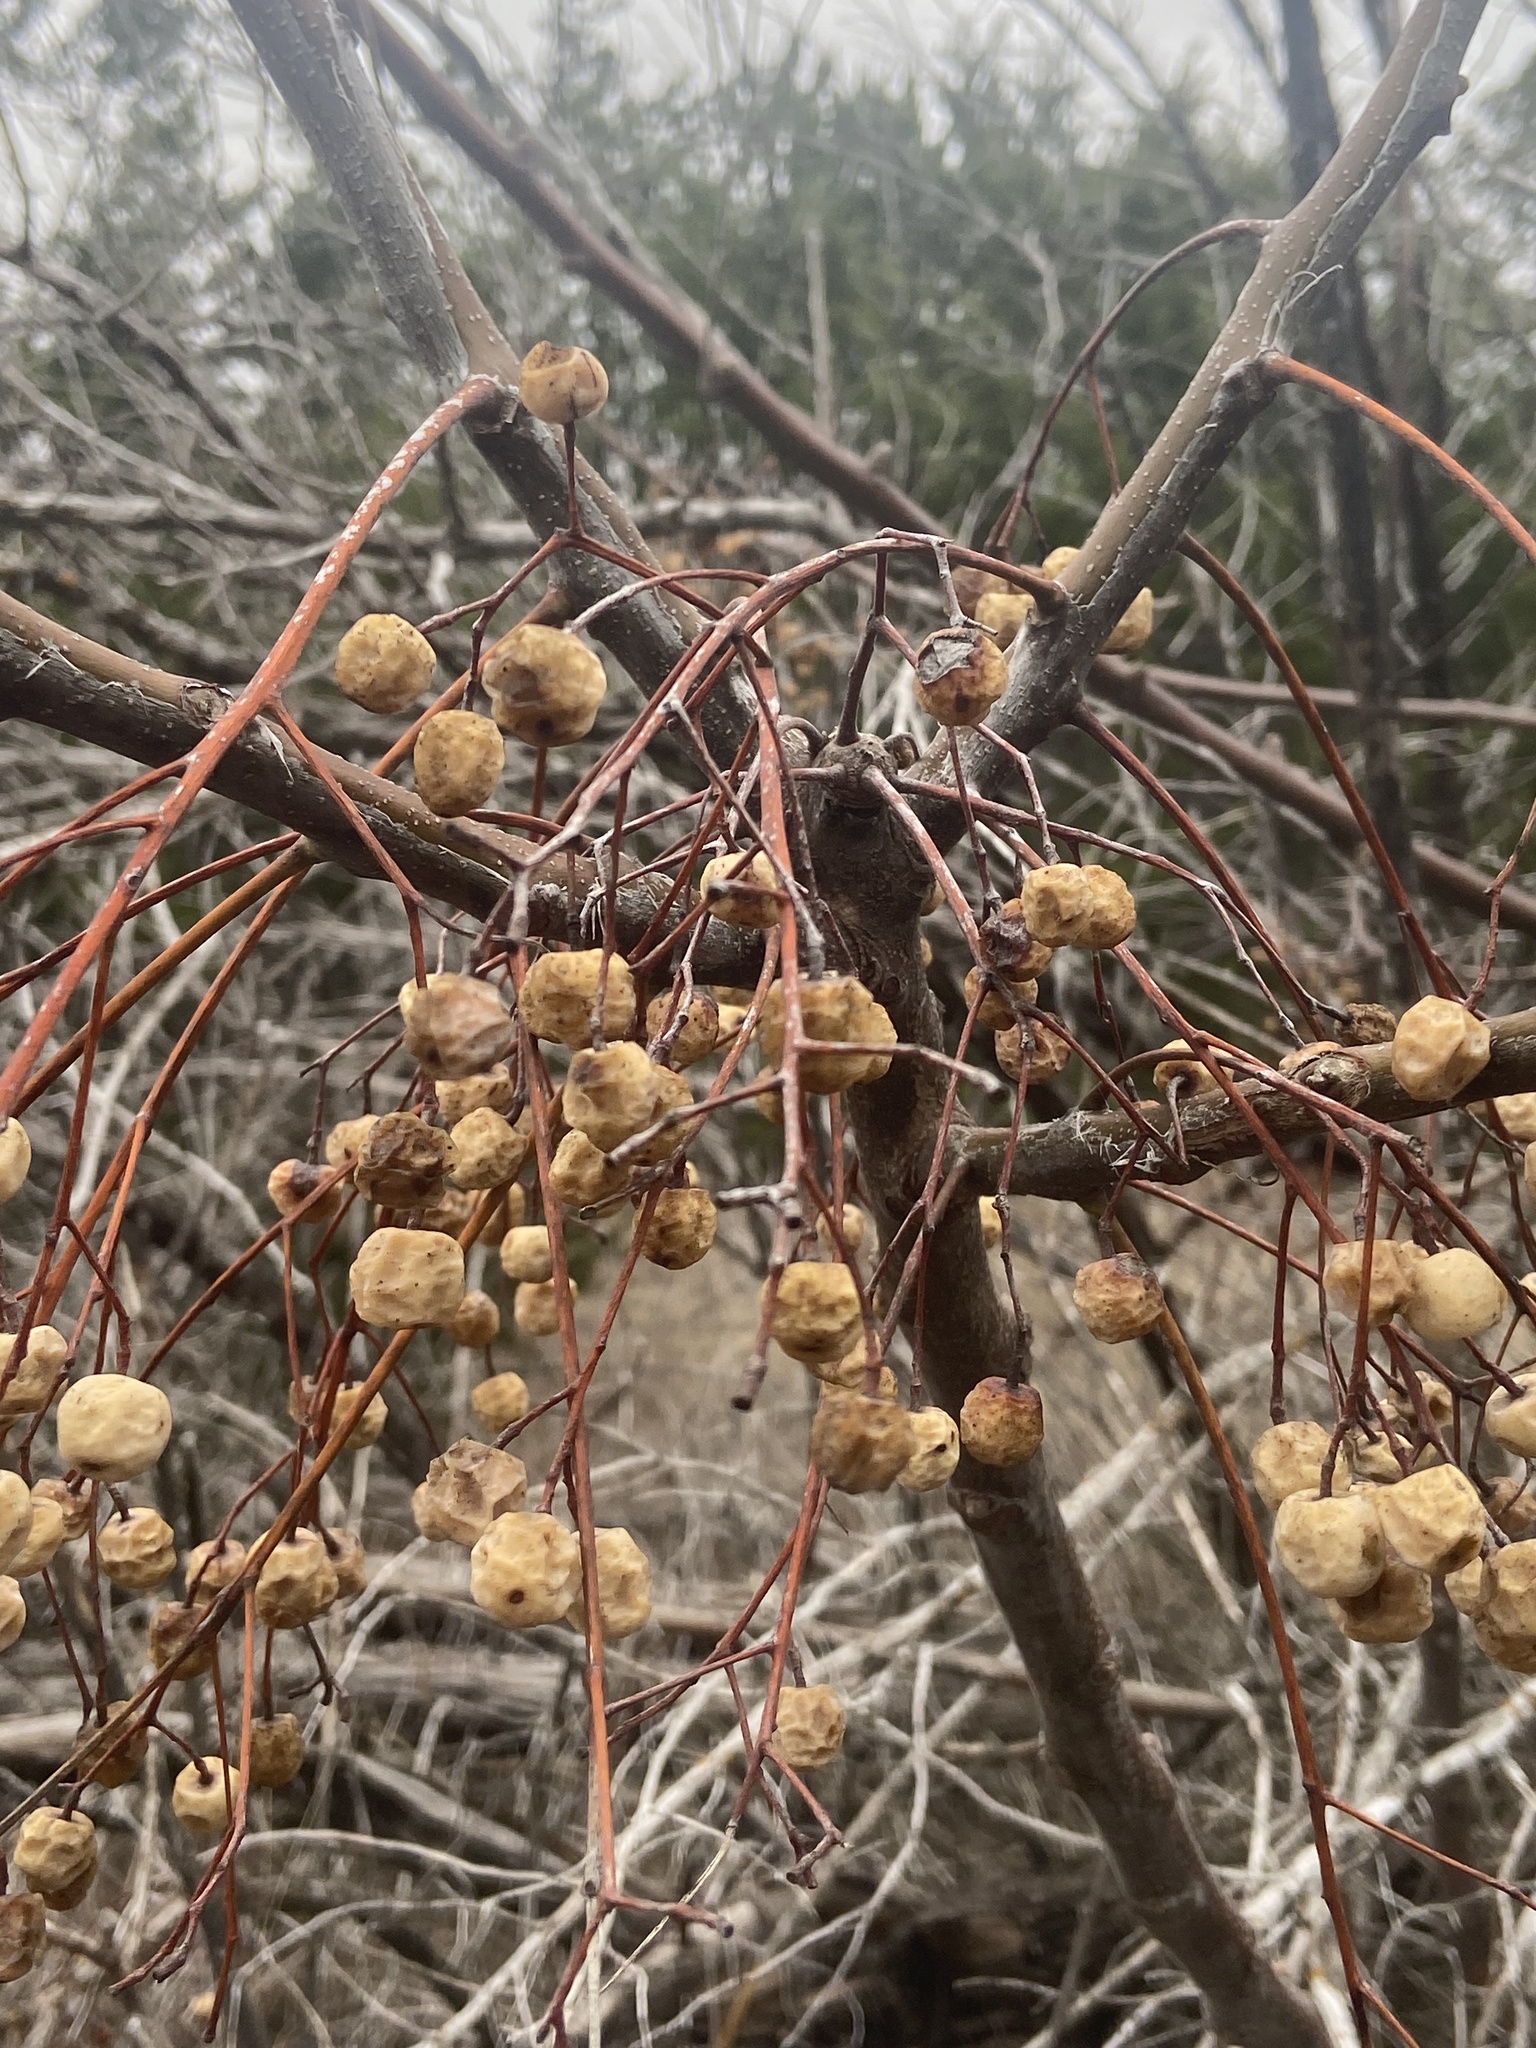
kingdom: Plantae
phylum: Tracheophyta
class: Magnoliopsida
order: Sapindales
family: Meliaceae
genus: Melia
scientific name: Melia azedarach
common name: Chinaberrytree
